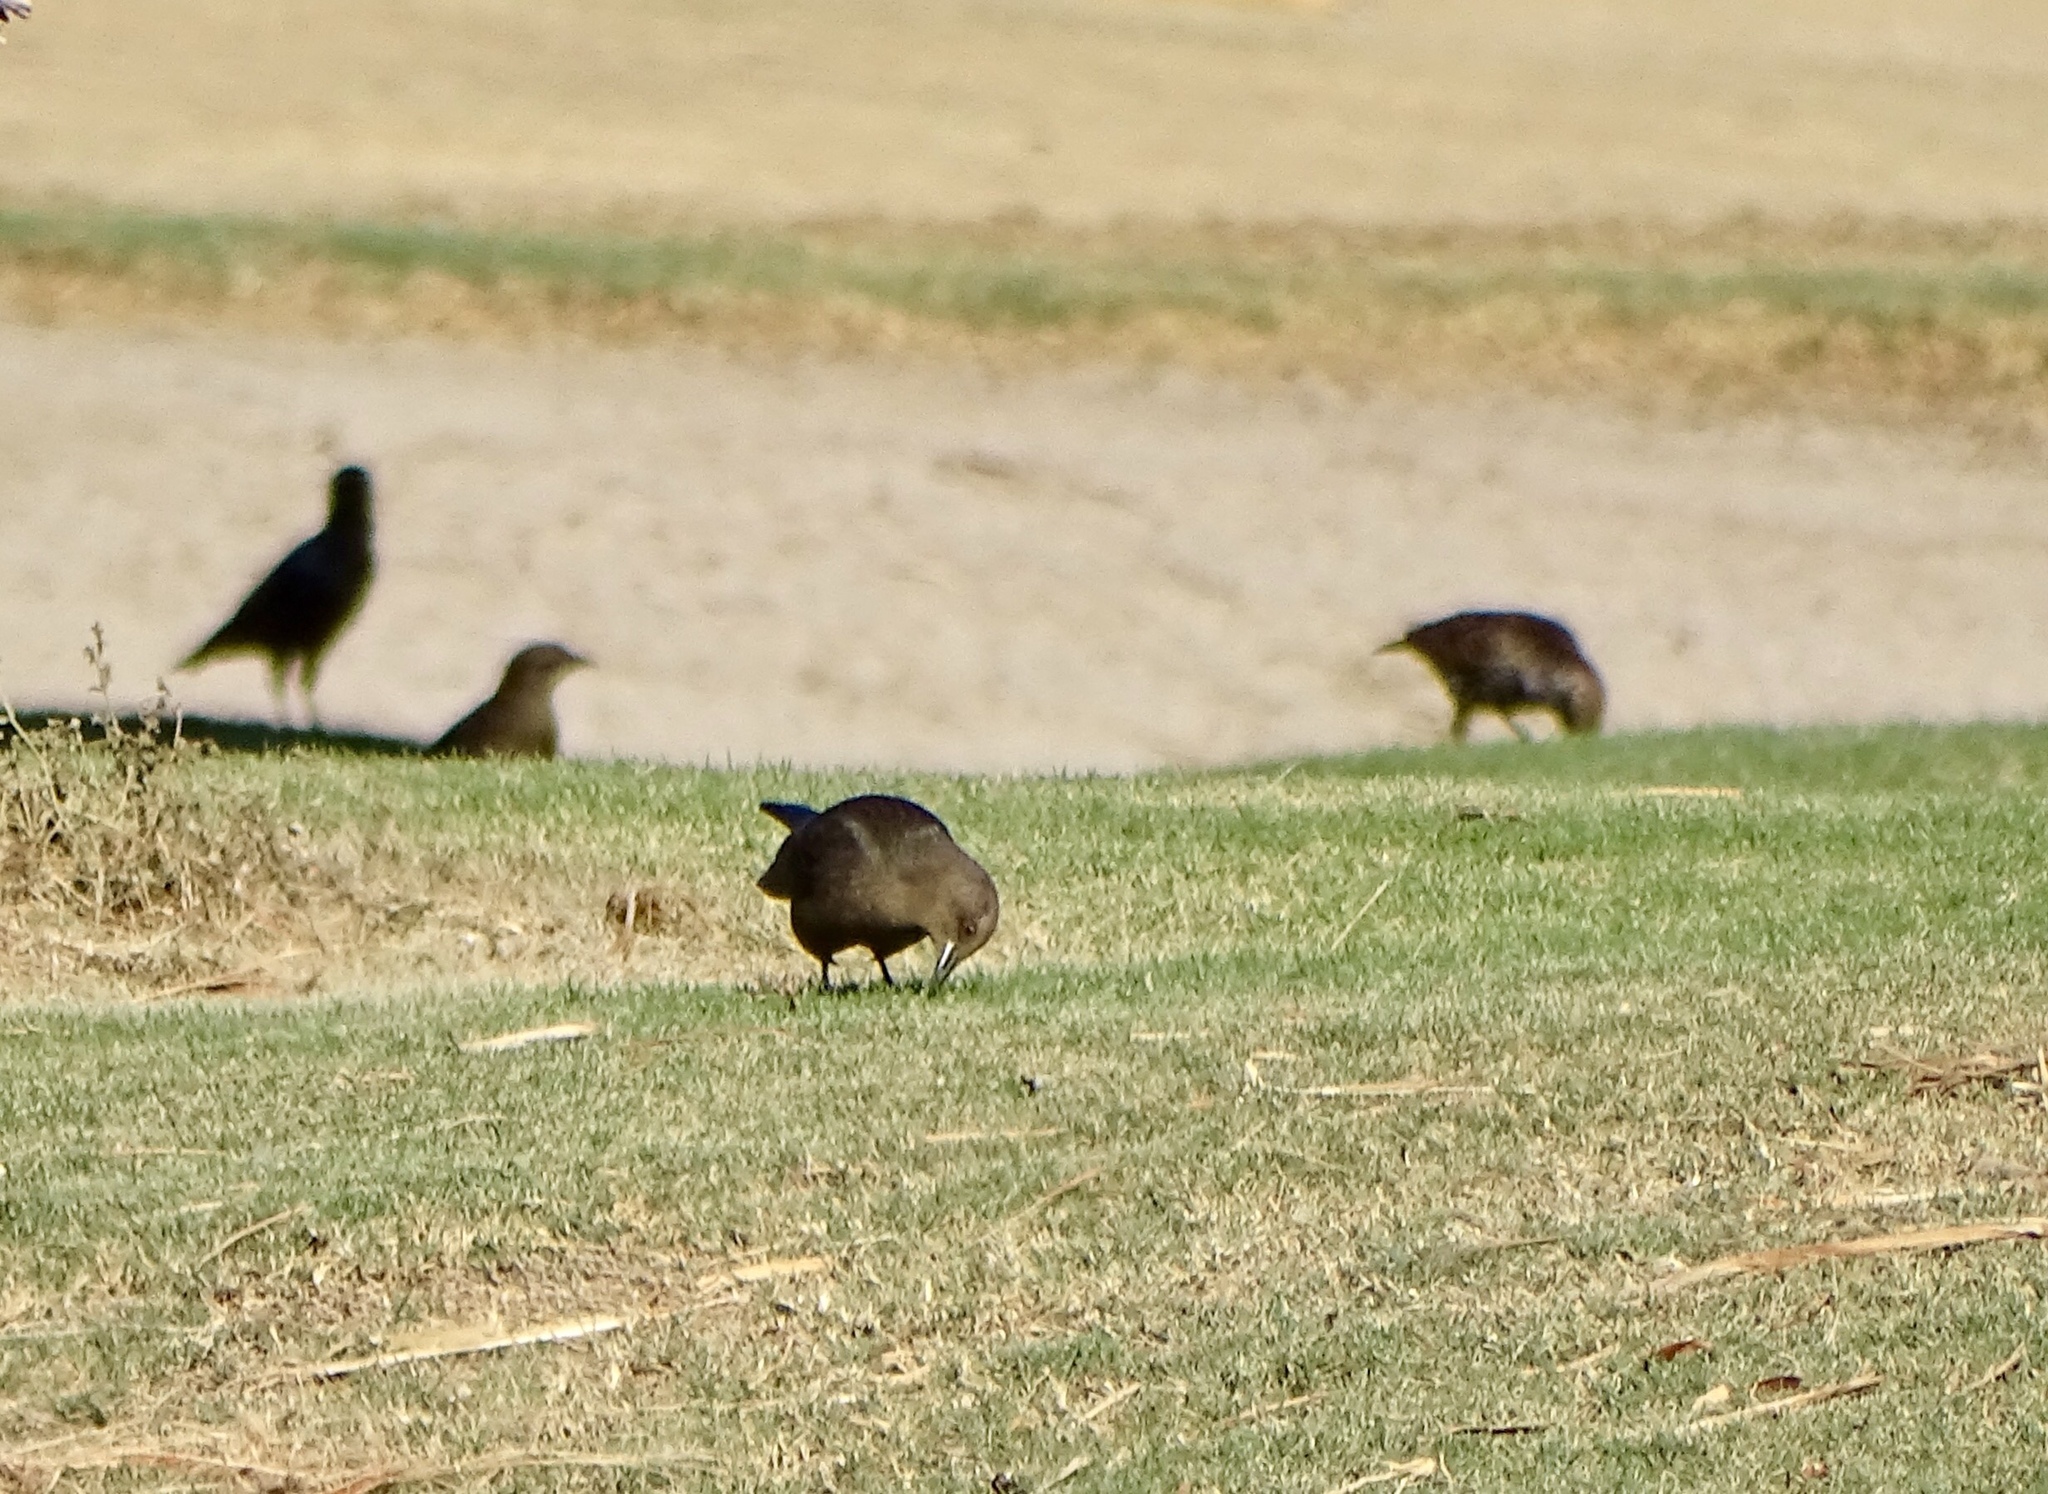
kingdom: Animalia
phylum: Chordata
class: Aves
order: Passeriformes
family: Icteridae
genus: Euphagus
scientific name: Euphagus cyanocephalus
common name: Brewer's blackbird
